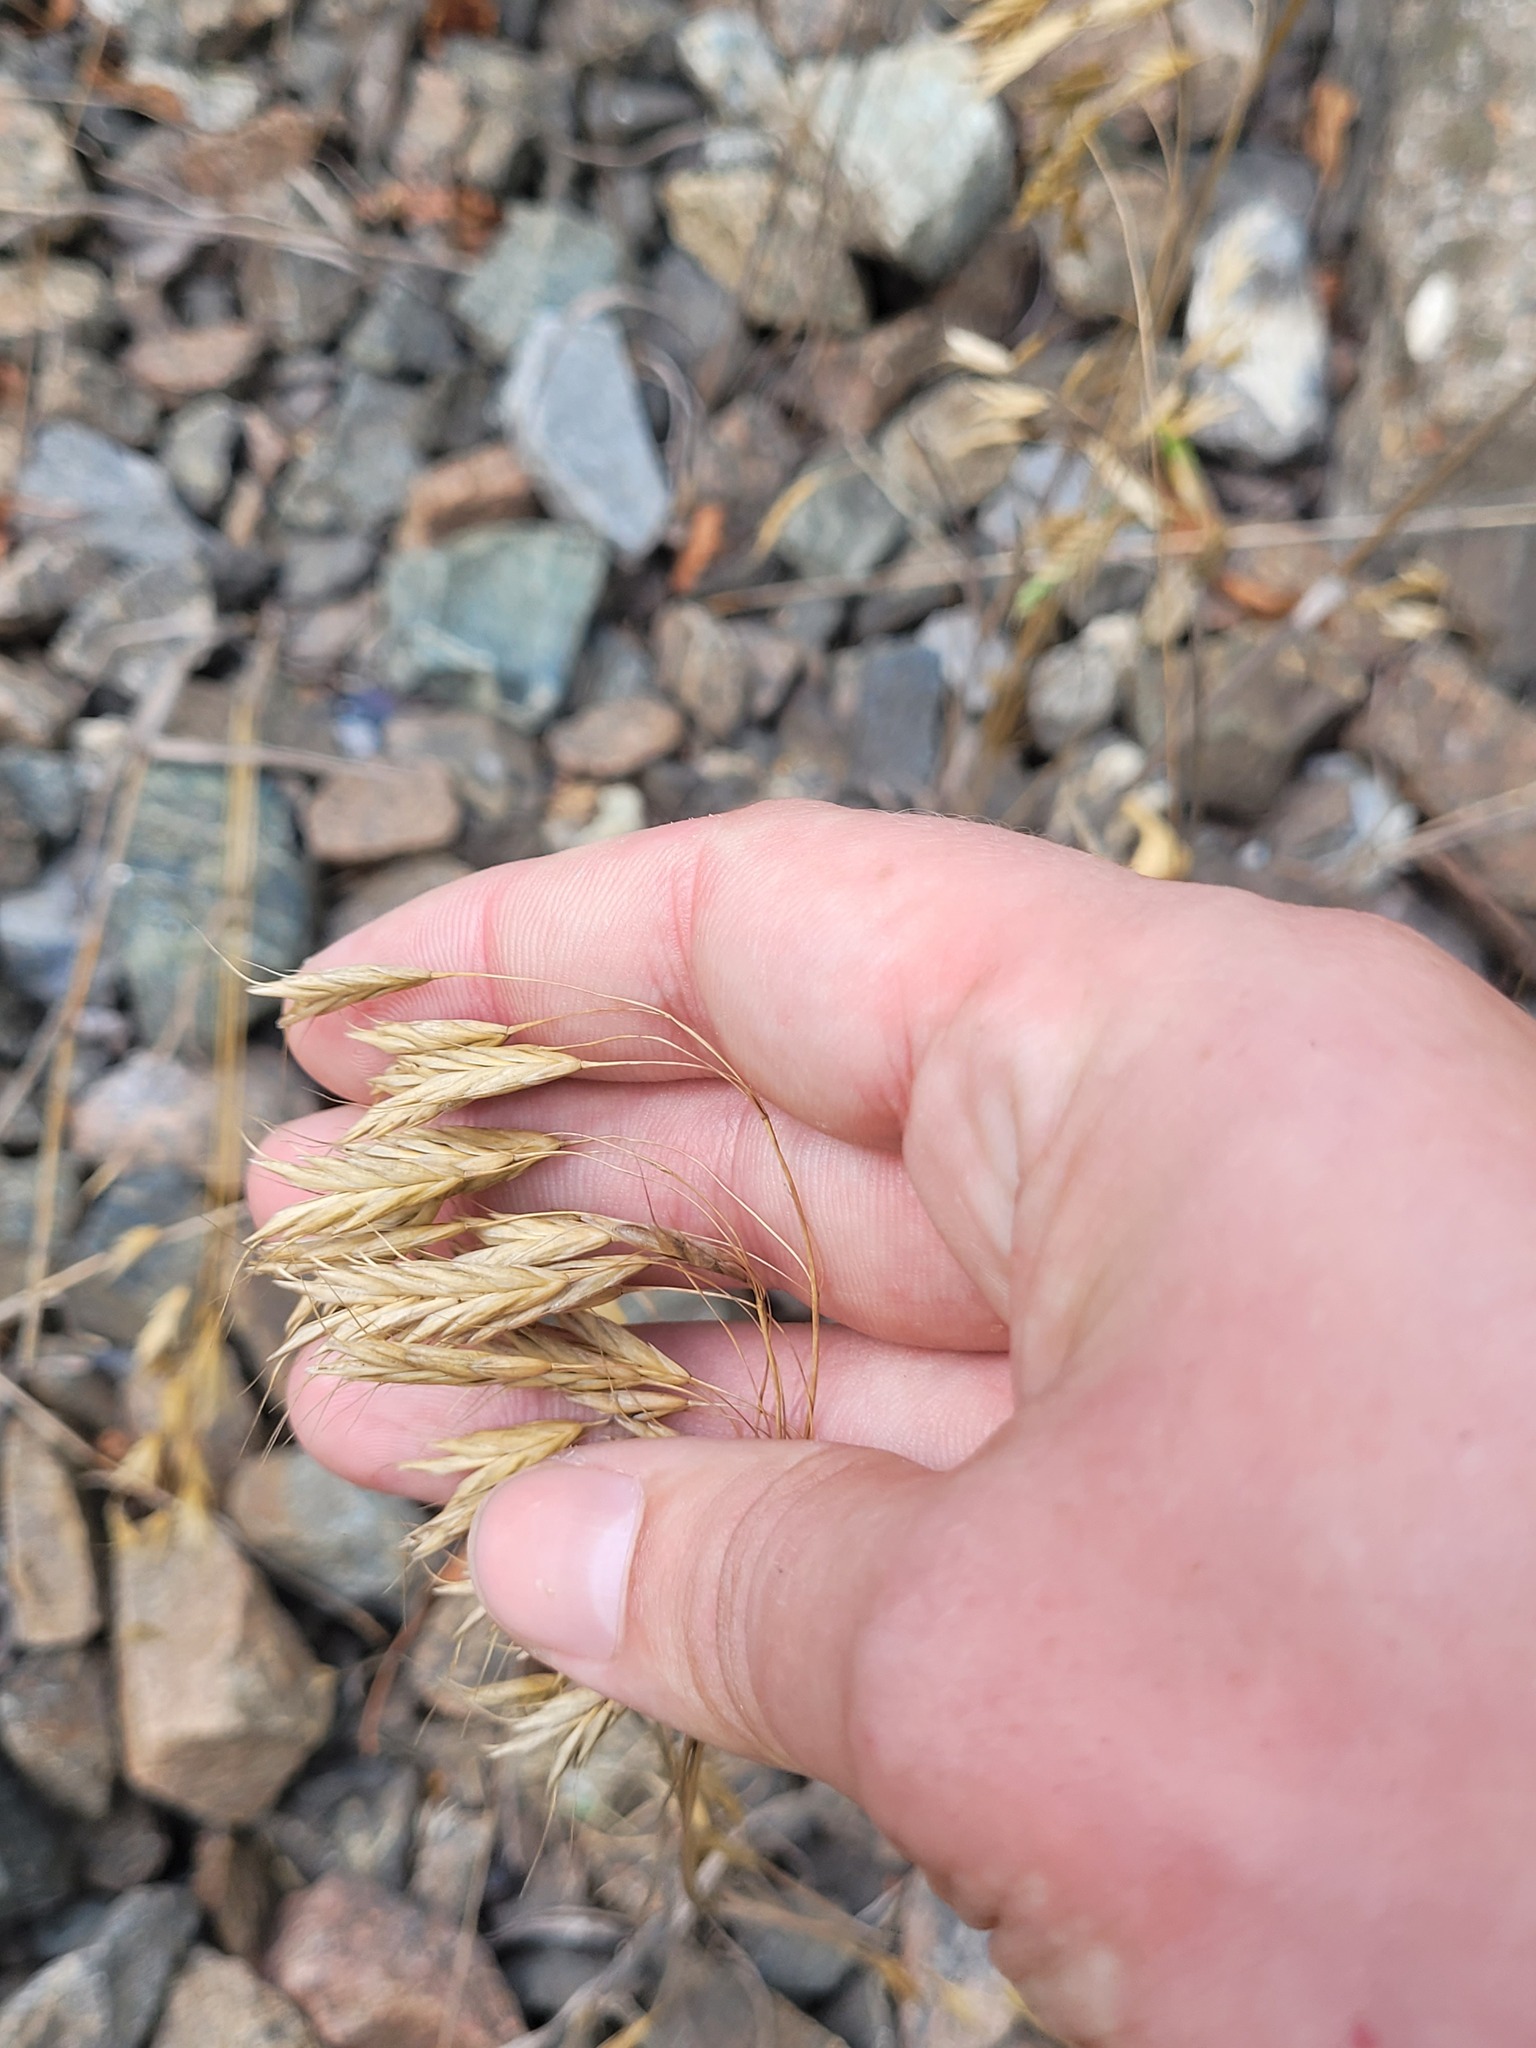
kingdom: Plantae
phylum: Tracheophyta
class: Liliopsida
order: Poales
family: Poaceae
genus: Bromus
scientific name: Bromus japonicus
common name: Japanese brome
